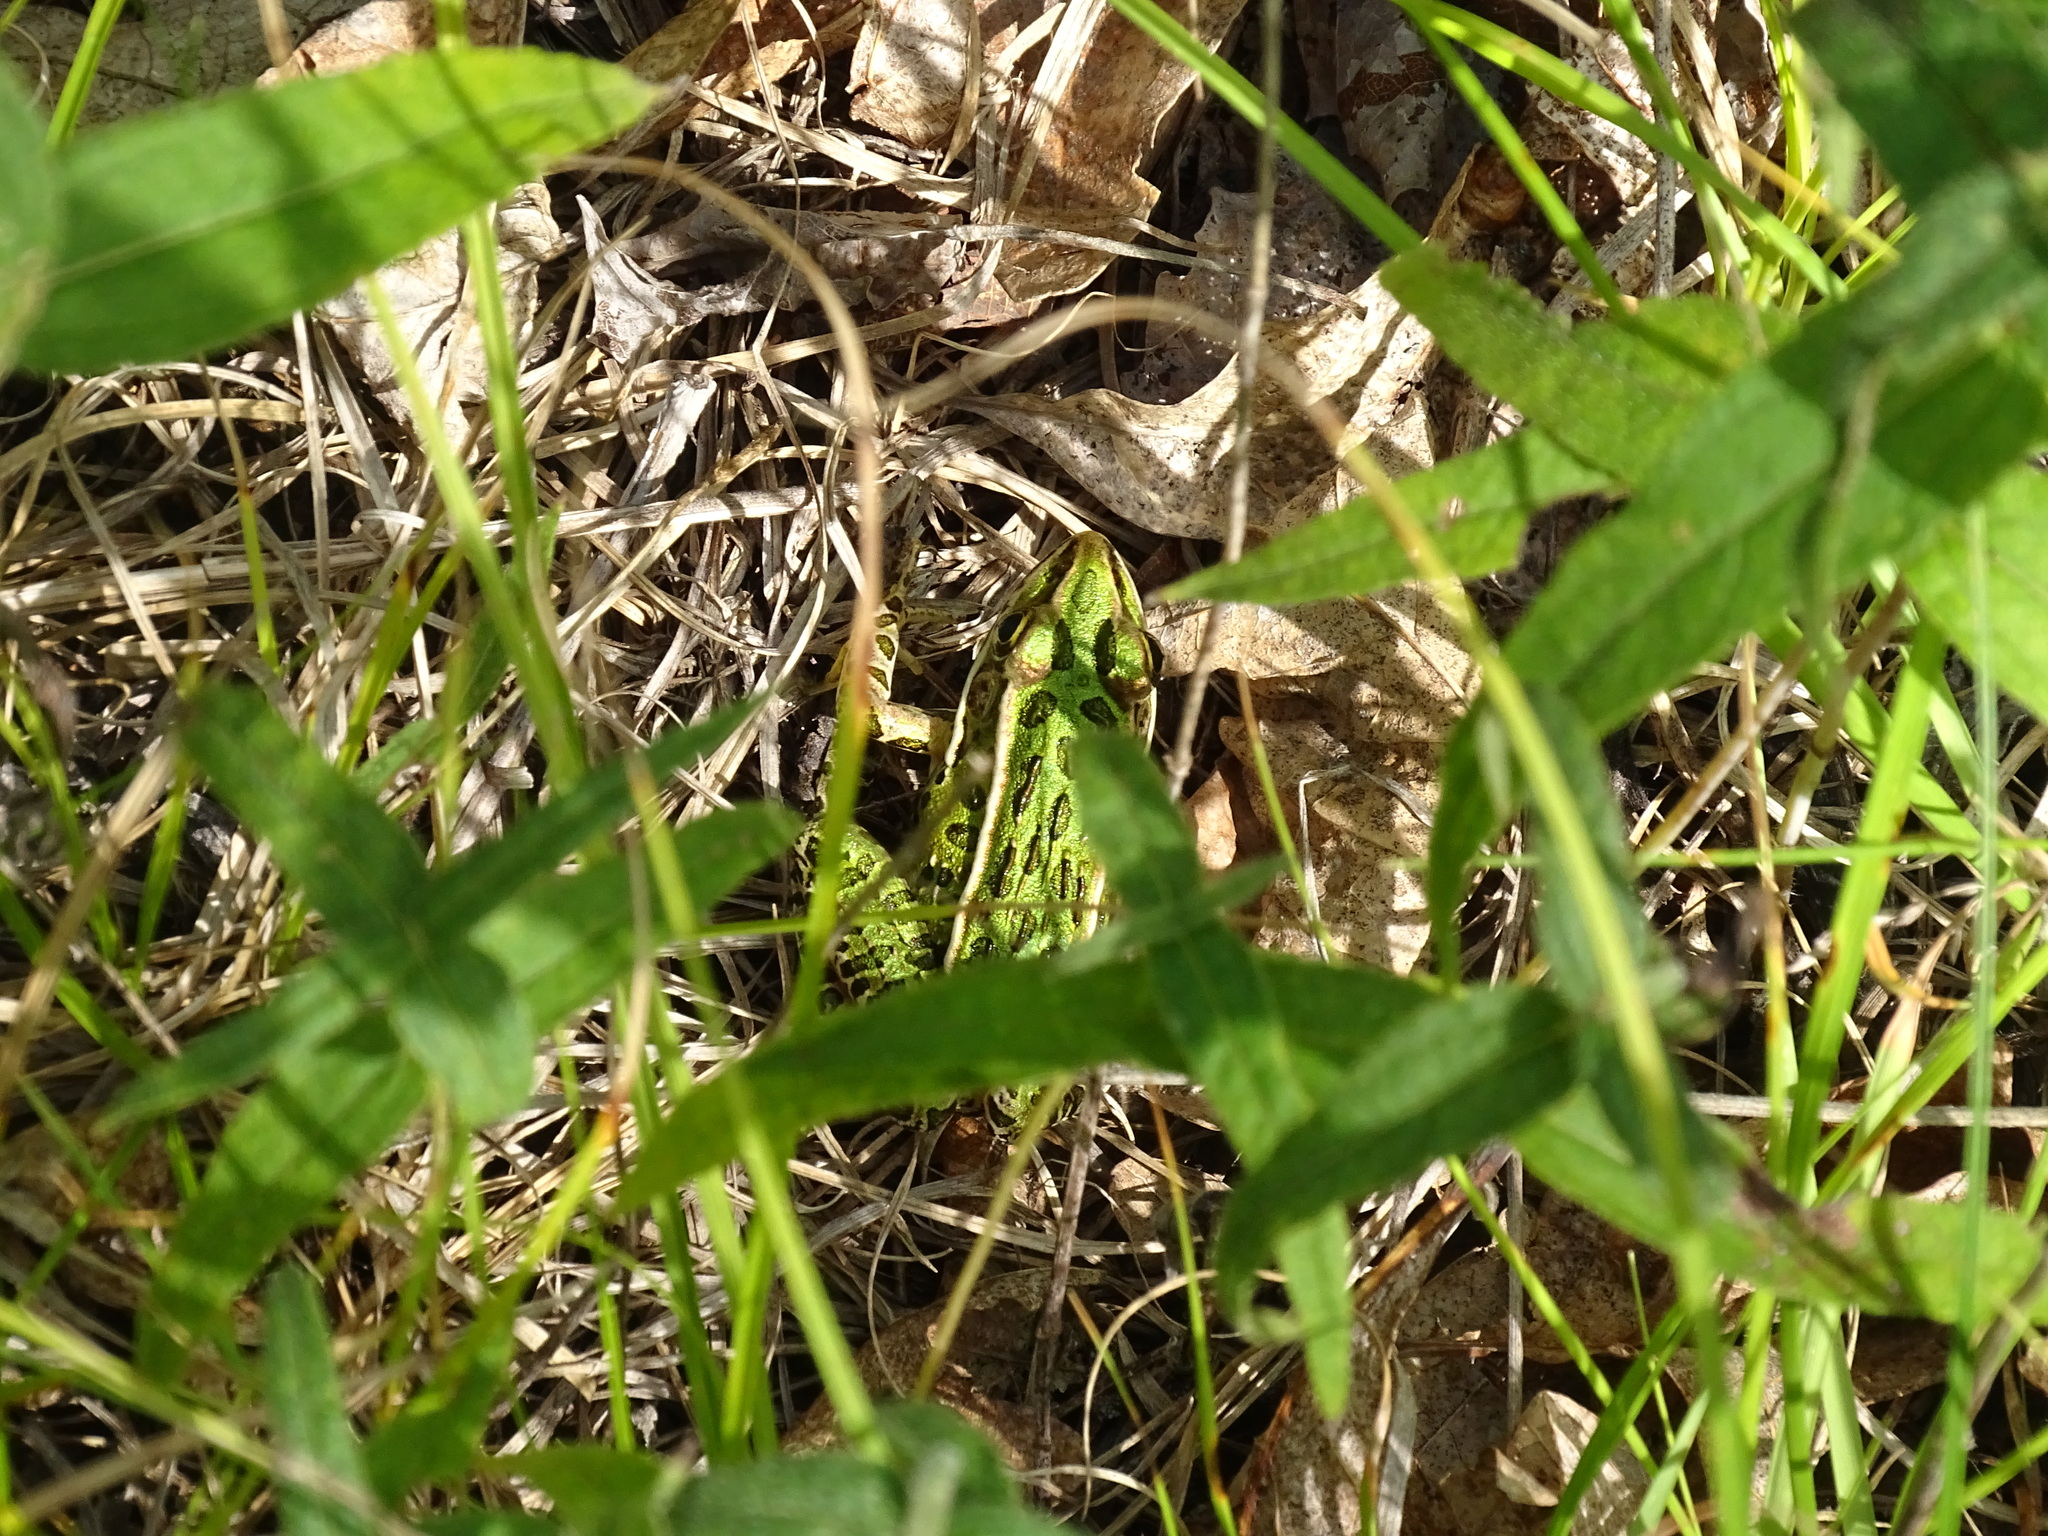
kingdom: Animalia
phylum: Chordata
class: Amphibia
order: Anura
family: Ranidae
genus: Lithobates
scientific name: Lithobates pipiens
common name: Northern leopard frog
